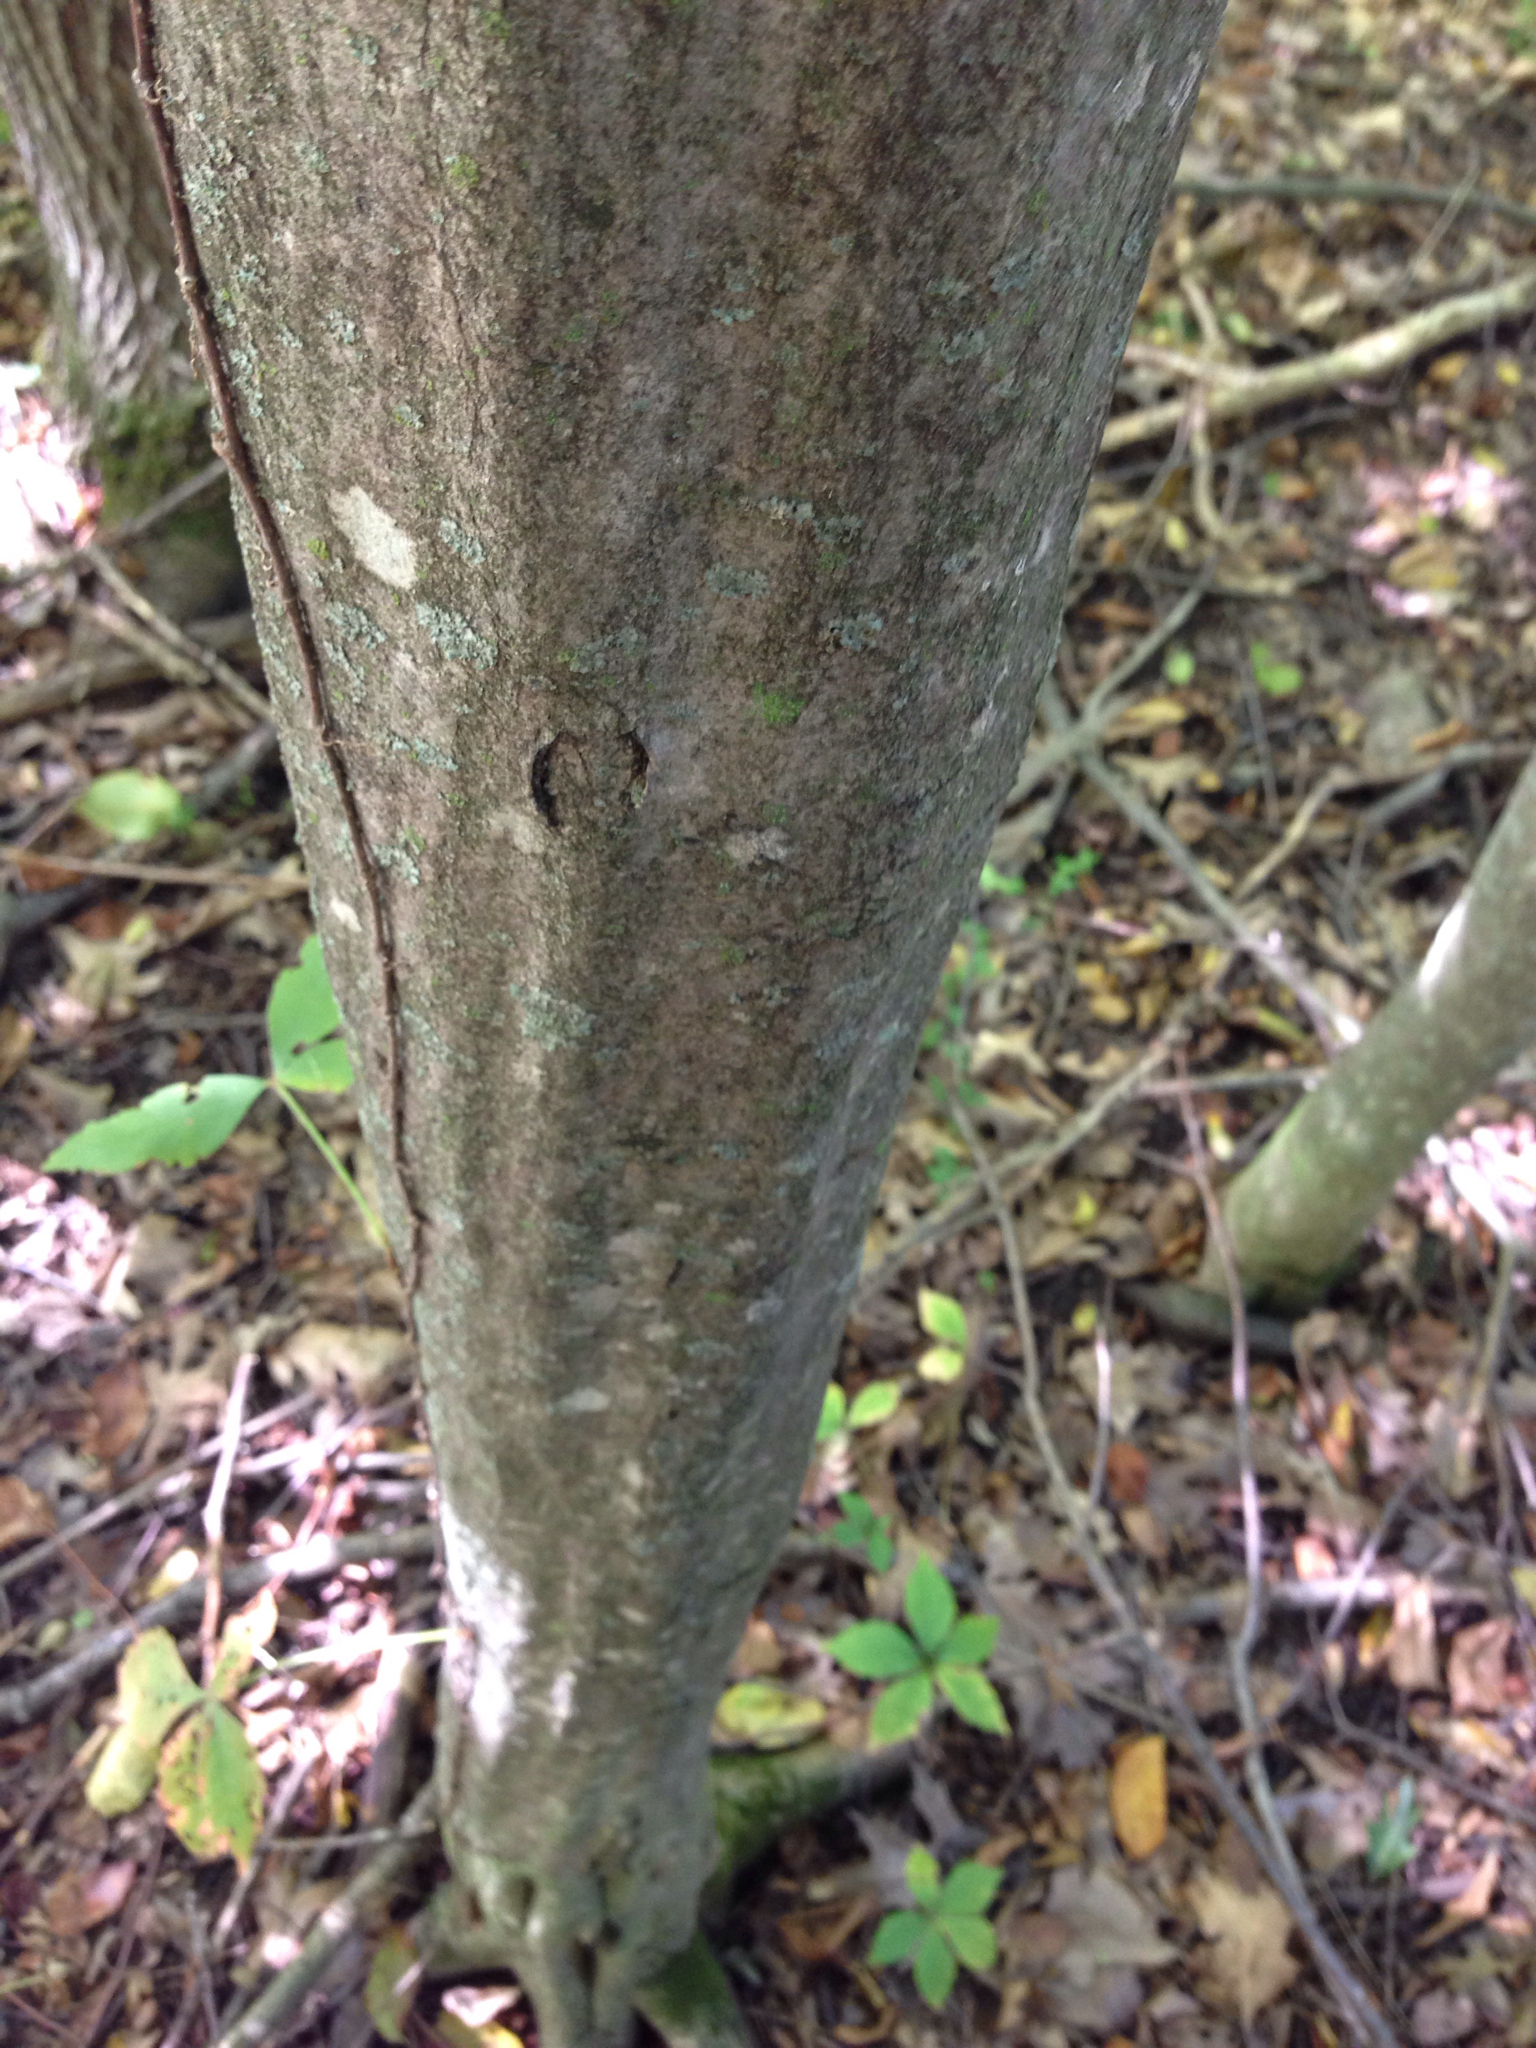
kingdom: Plantae
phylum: Tracheophyta
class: Magnoliopsida
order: Fagales
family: Betulaceae
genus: Carpinus
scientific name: Carpinus caroliniana
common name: American hornbeam
